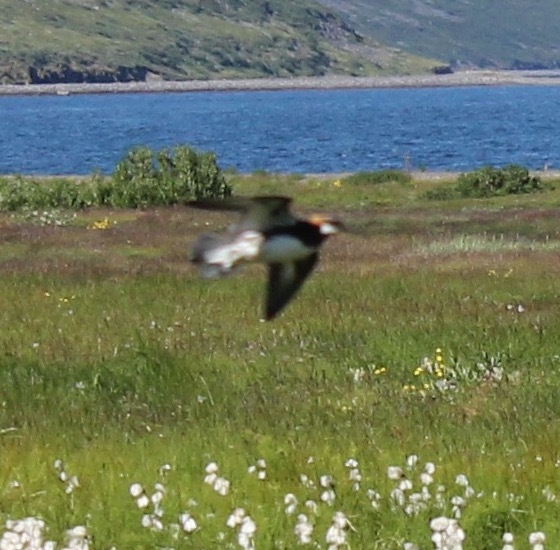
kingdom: Animalia
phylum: Chordata
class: Aves
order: Charadriiformes
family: Scolopacidae
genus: Phalaropus
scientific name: Phalaropus lobatus
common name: Red-necked phalarope
